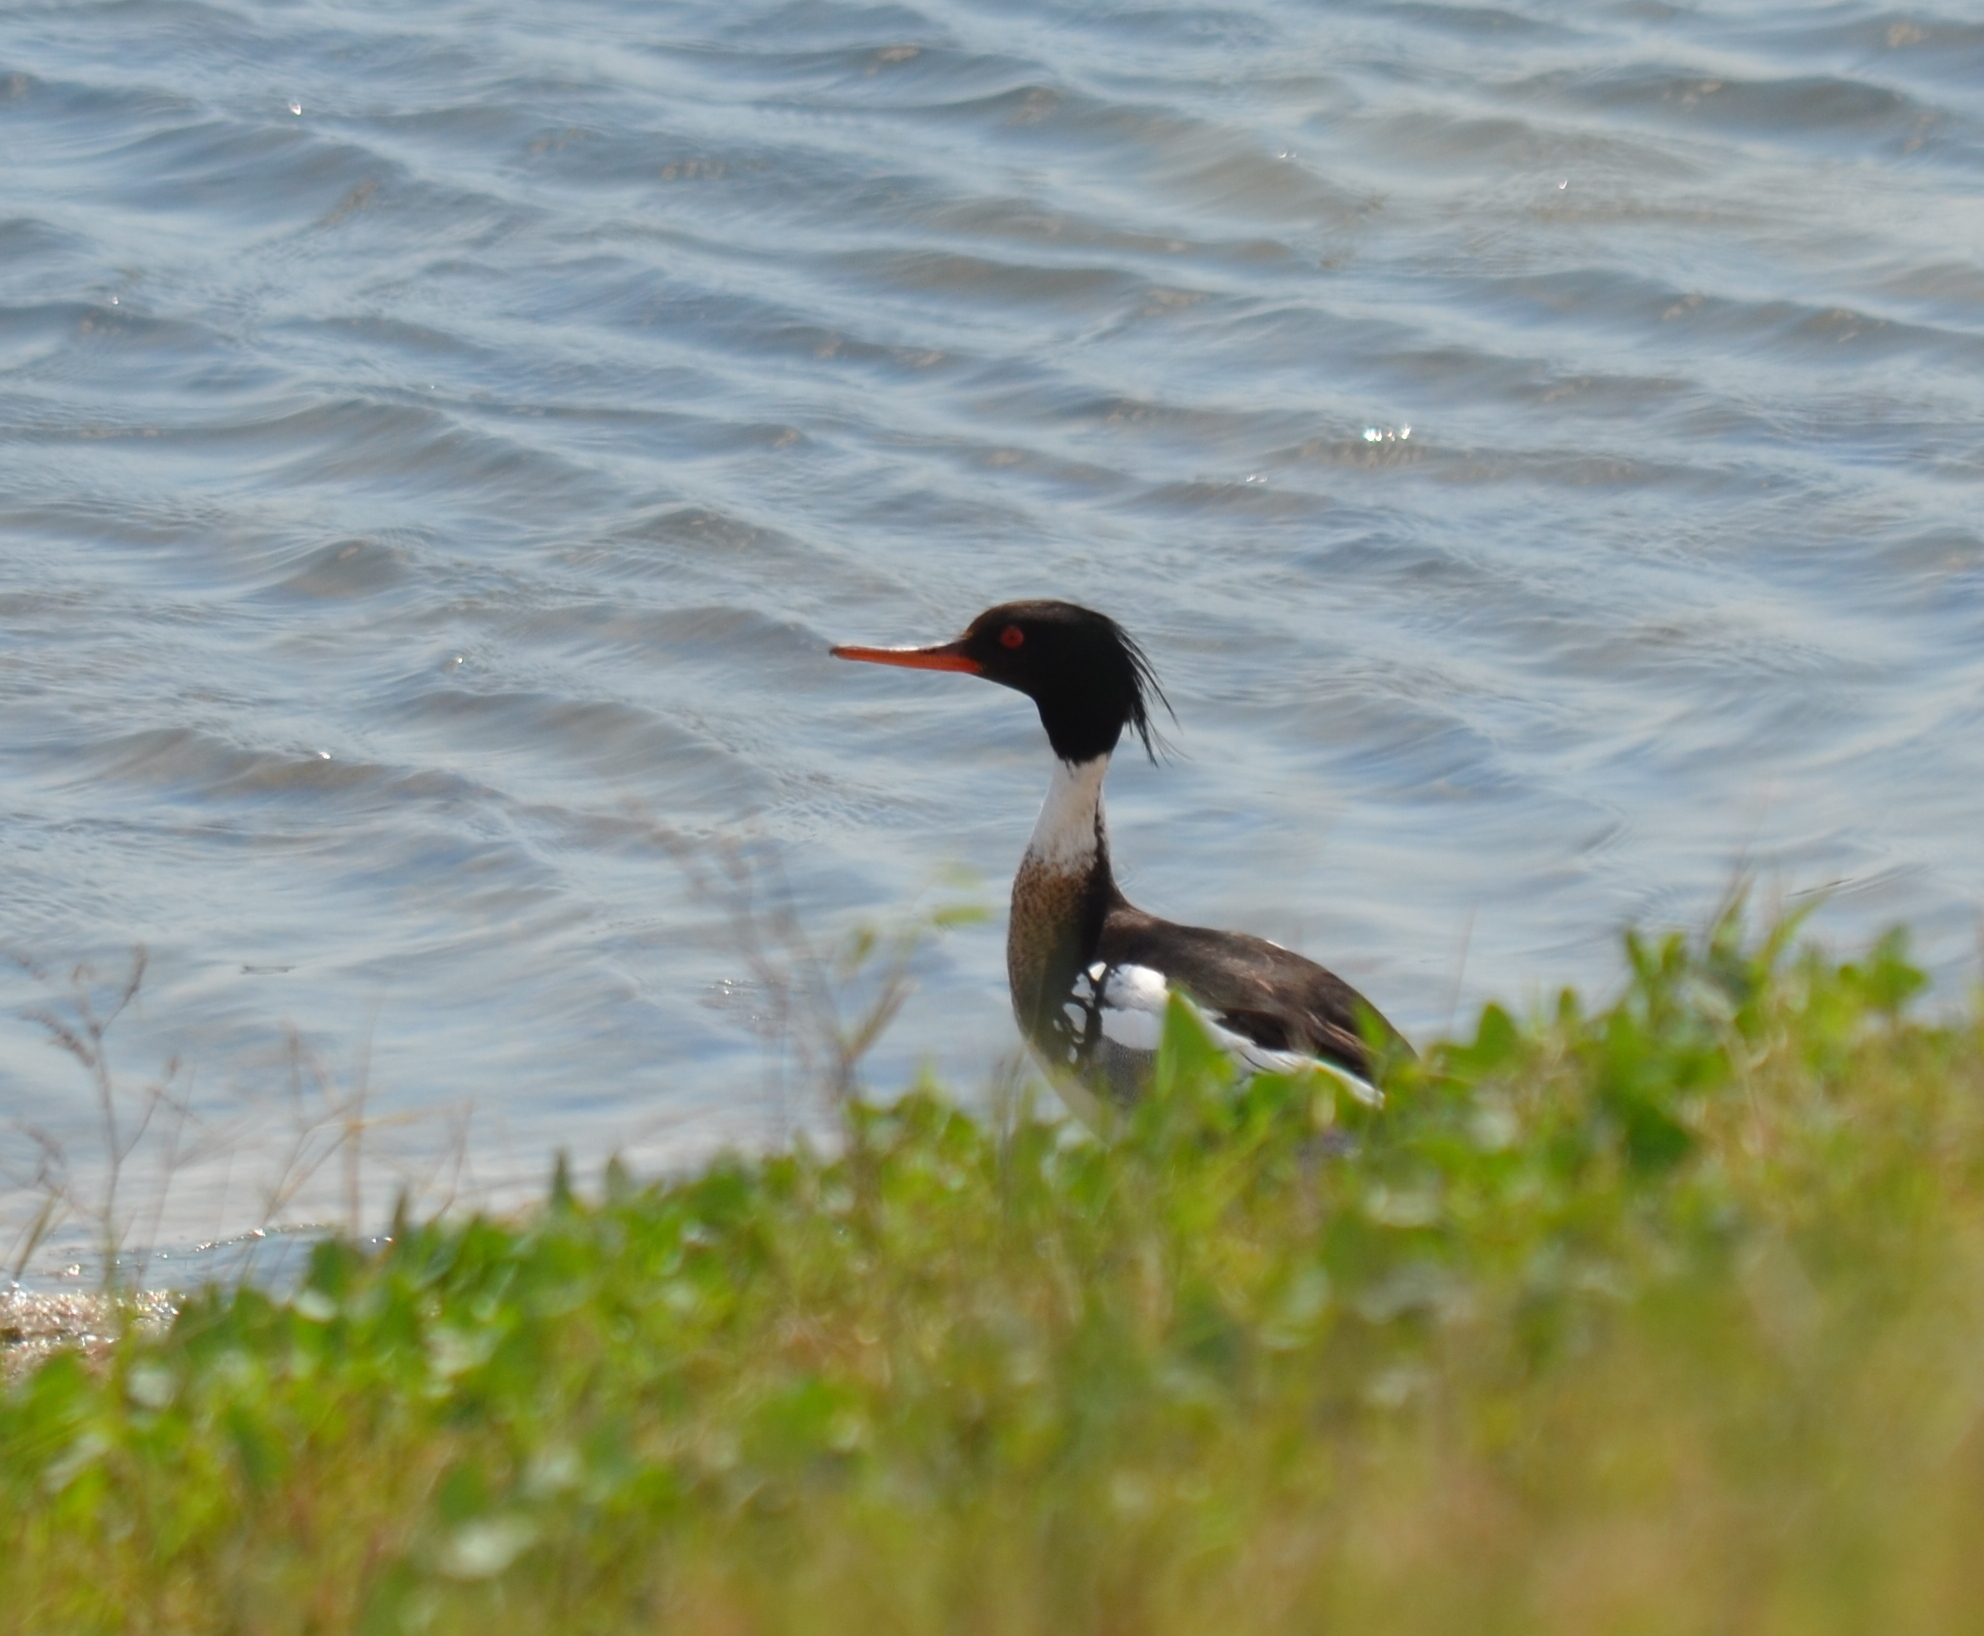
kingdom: Animalia
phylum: Chordata
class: Aves
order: Anseriformes
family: Anatidae
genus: Mergus
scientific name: Mergus serrator
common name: Red-breasted merganser
